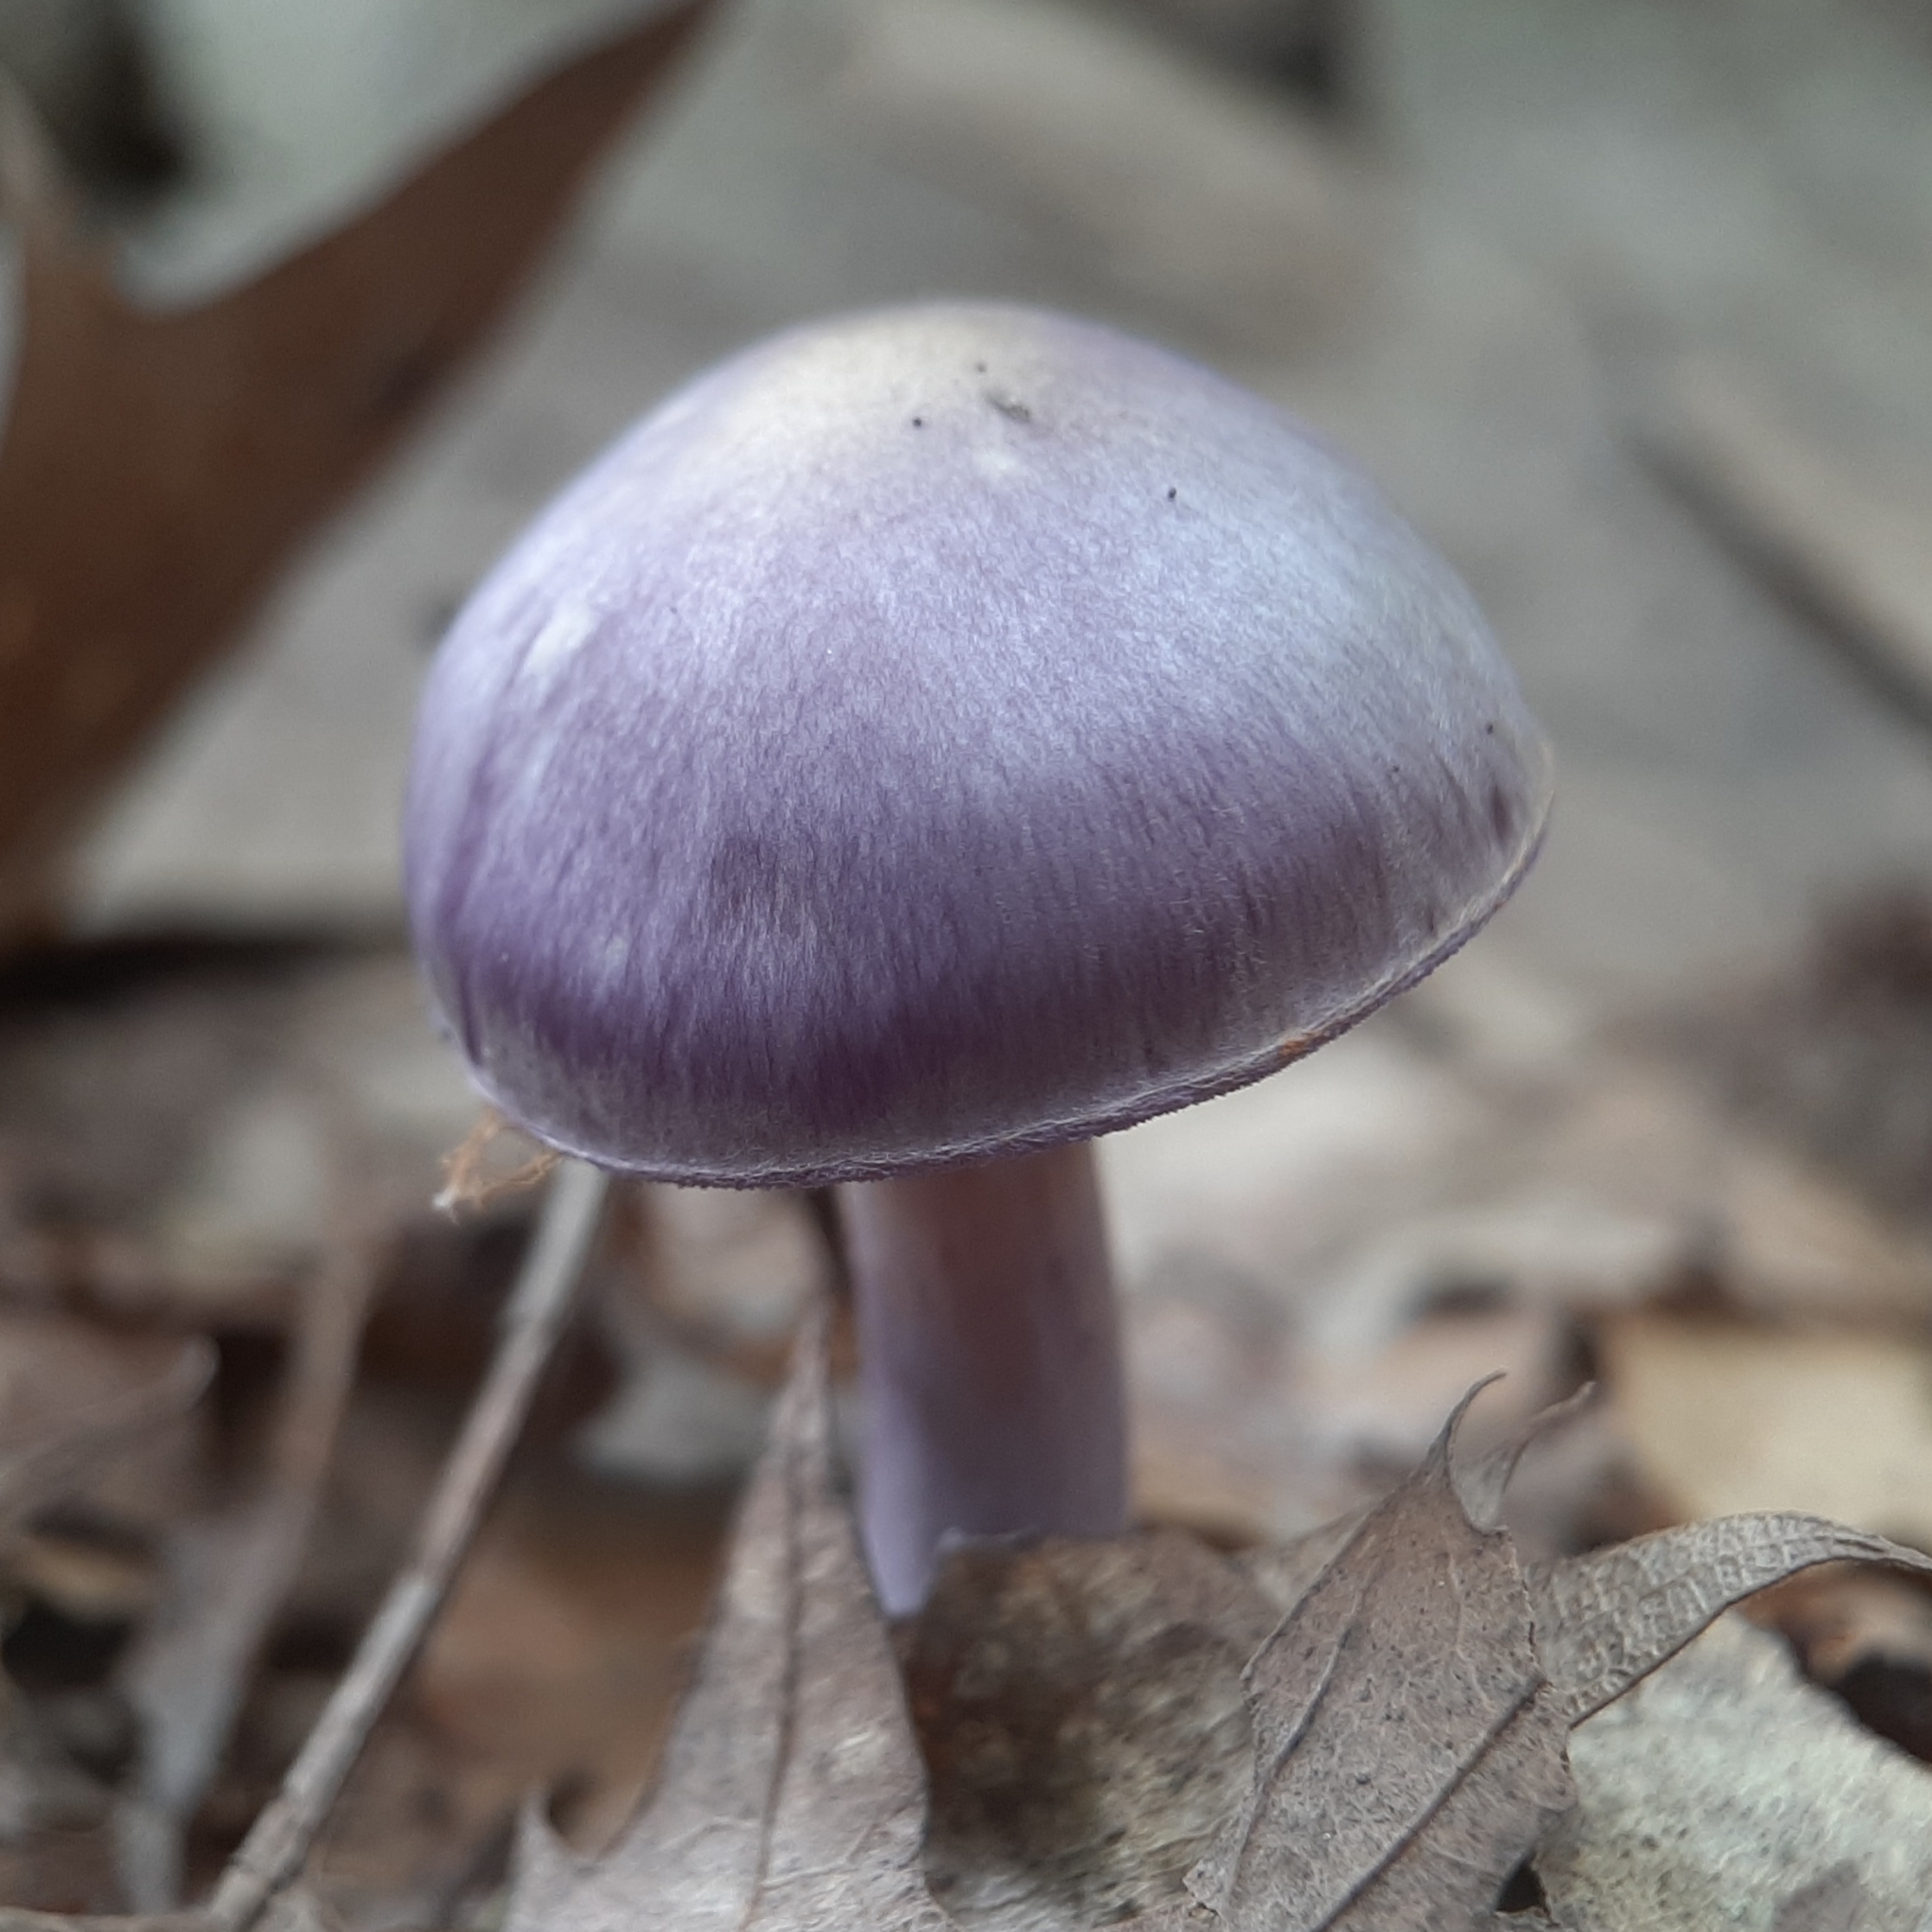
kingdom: Fungi
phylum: Basidiomycota
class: Agaricomycetes
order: Agaricales
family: Cortinariaceae
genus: Cortinarius
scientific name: Cortinarius iodes
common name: Viscid violet cort
